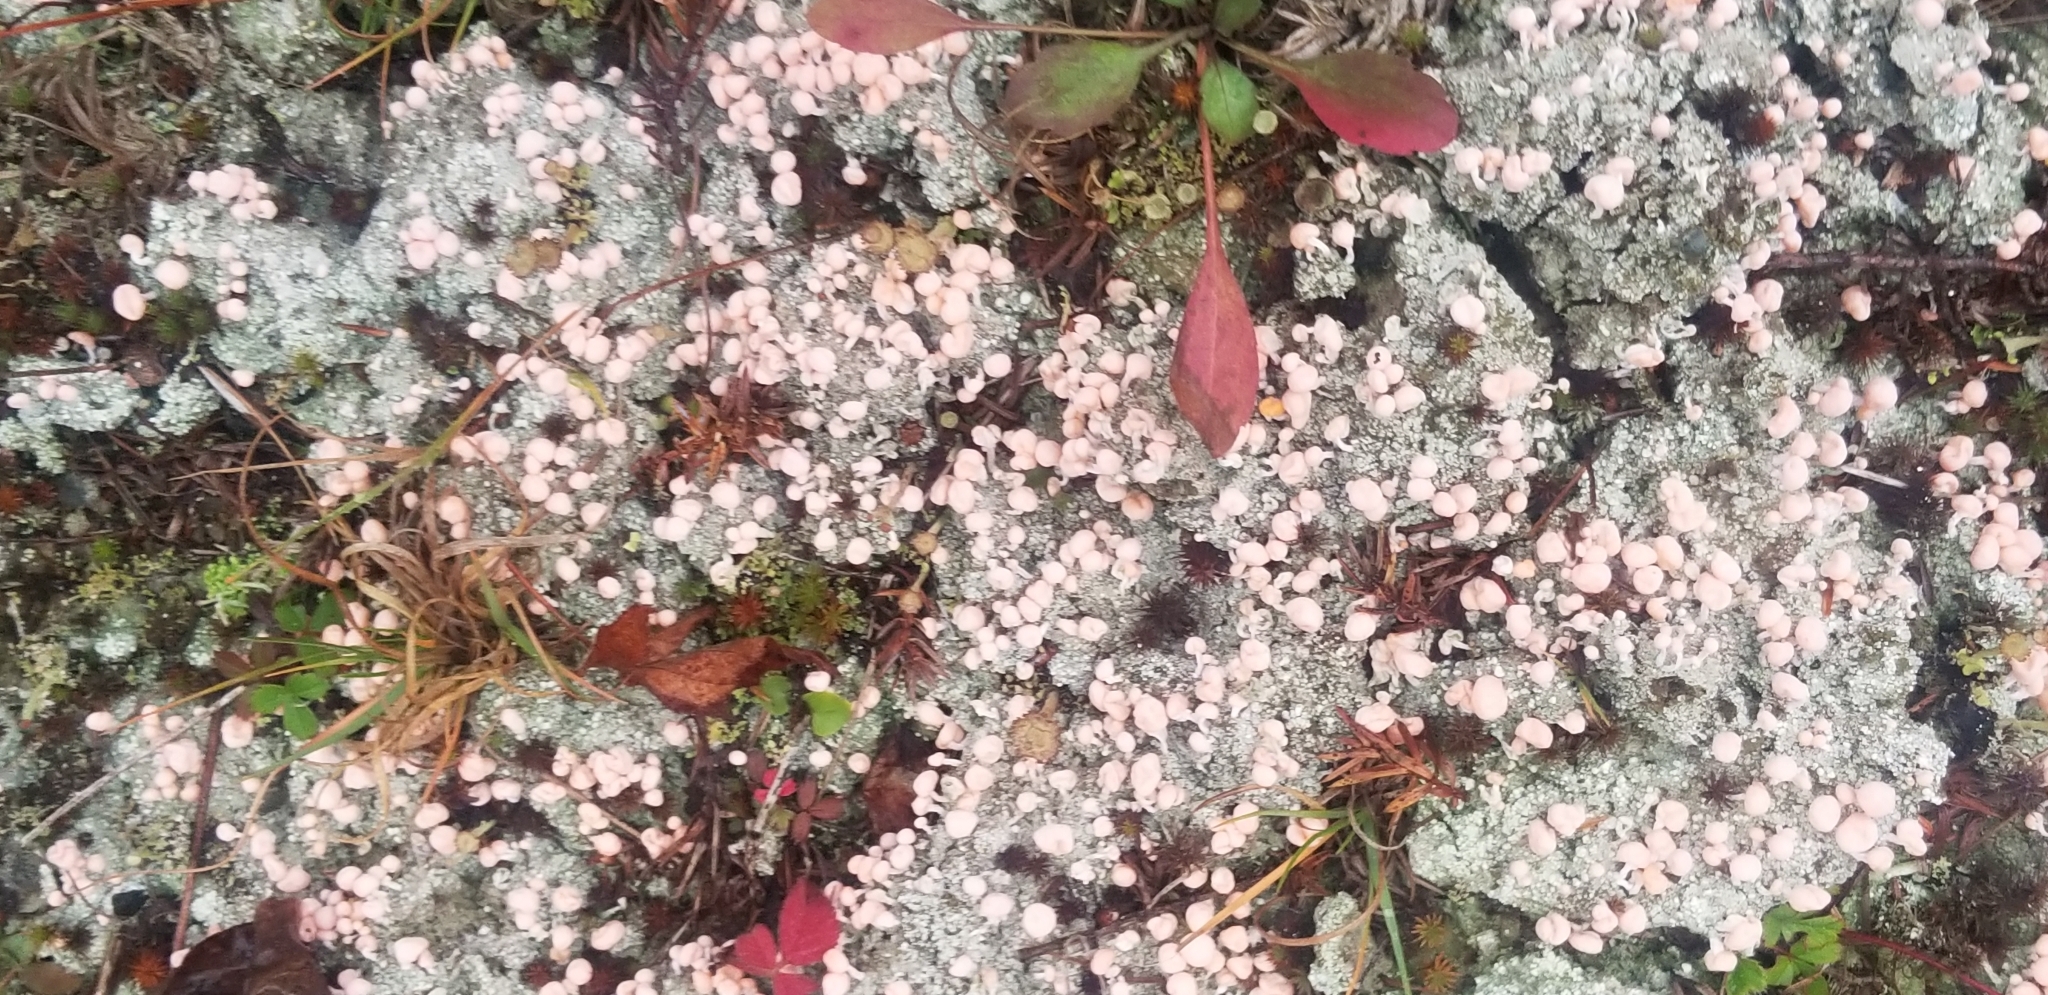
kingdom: Fungi
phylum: Ascomycota
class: Lecanoromycetes
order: Pertusariales
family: Icmadophilaceae
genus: Dibaeis
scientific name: Dibaeis baeomyces
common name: Pink earth lichen
